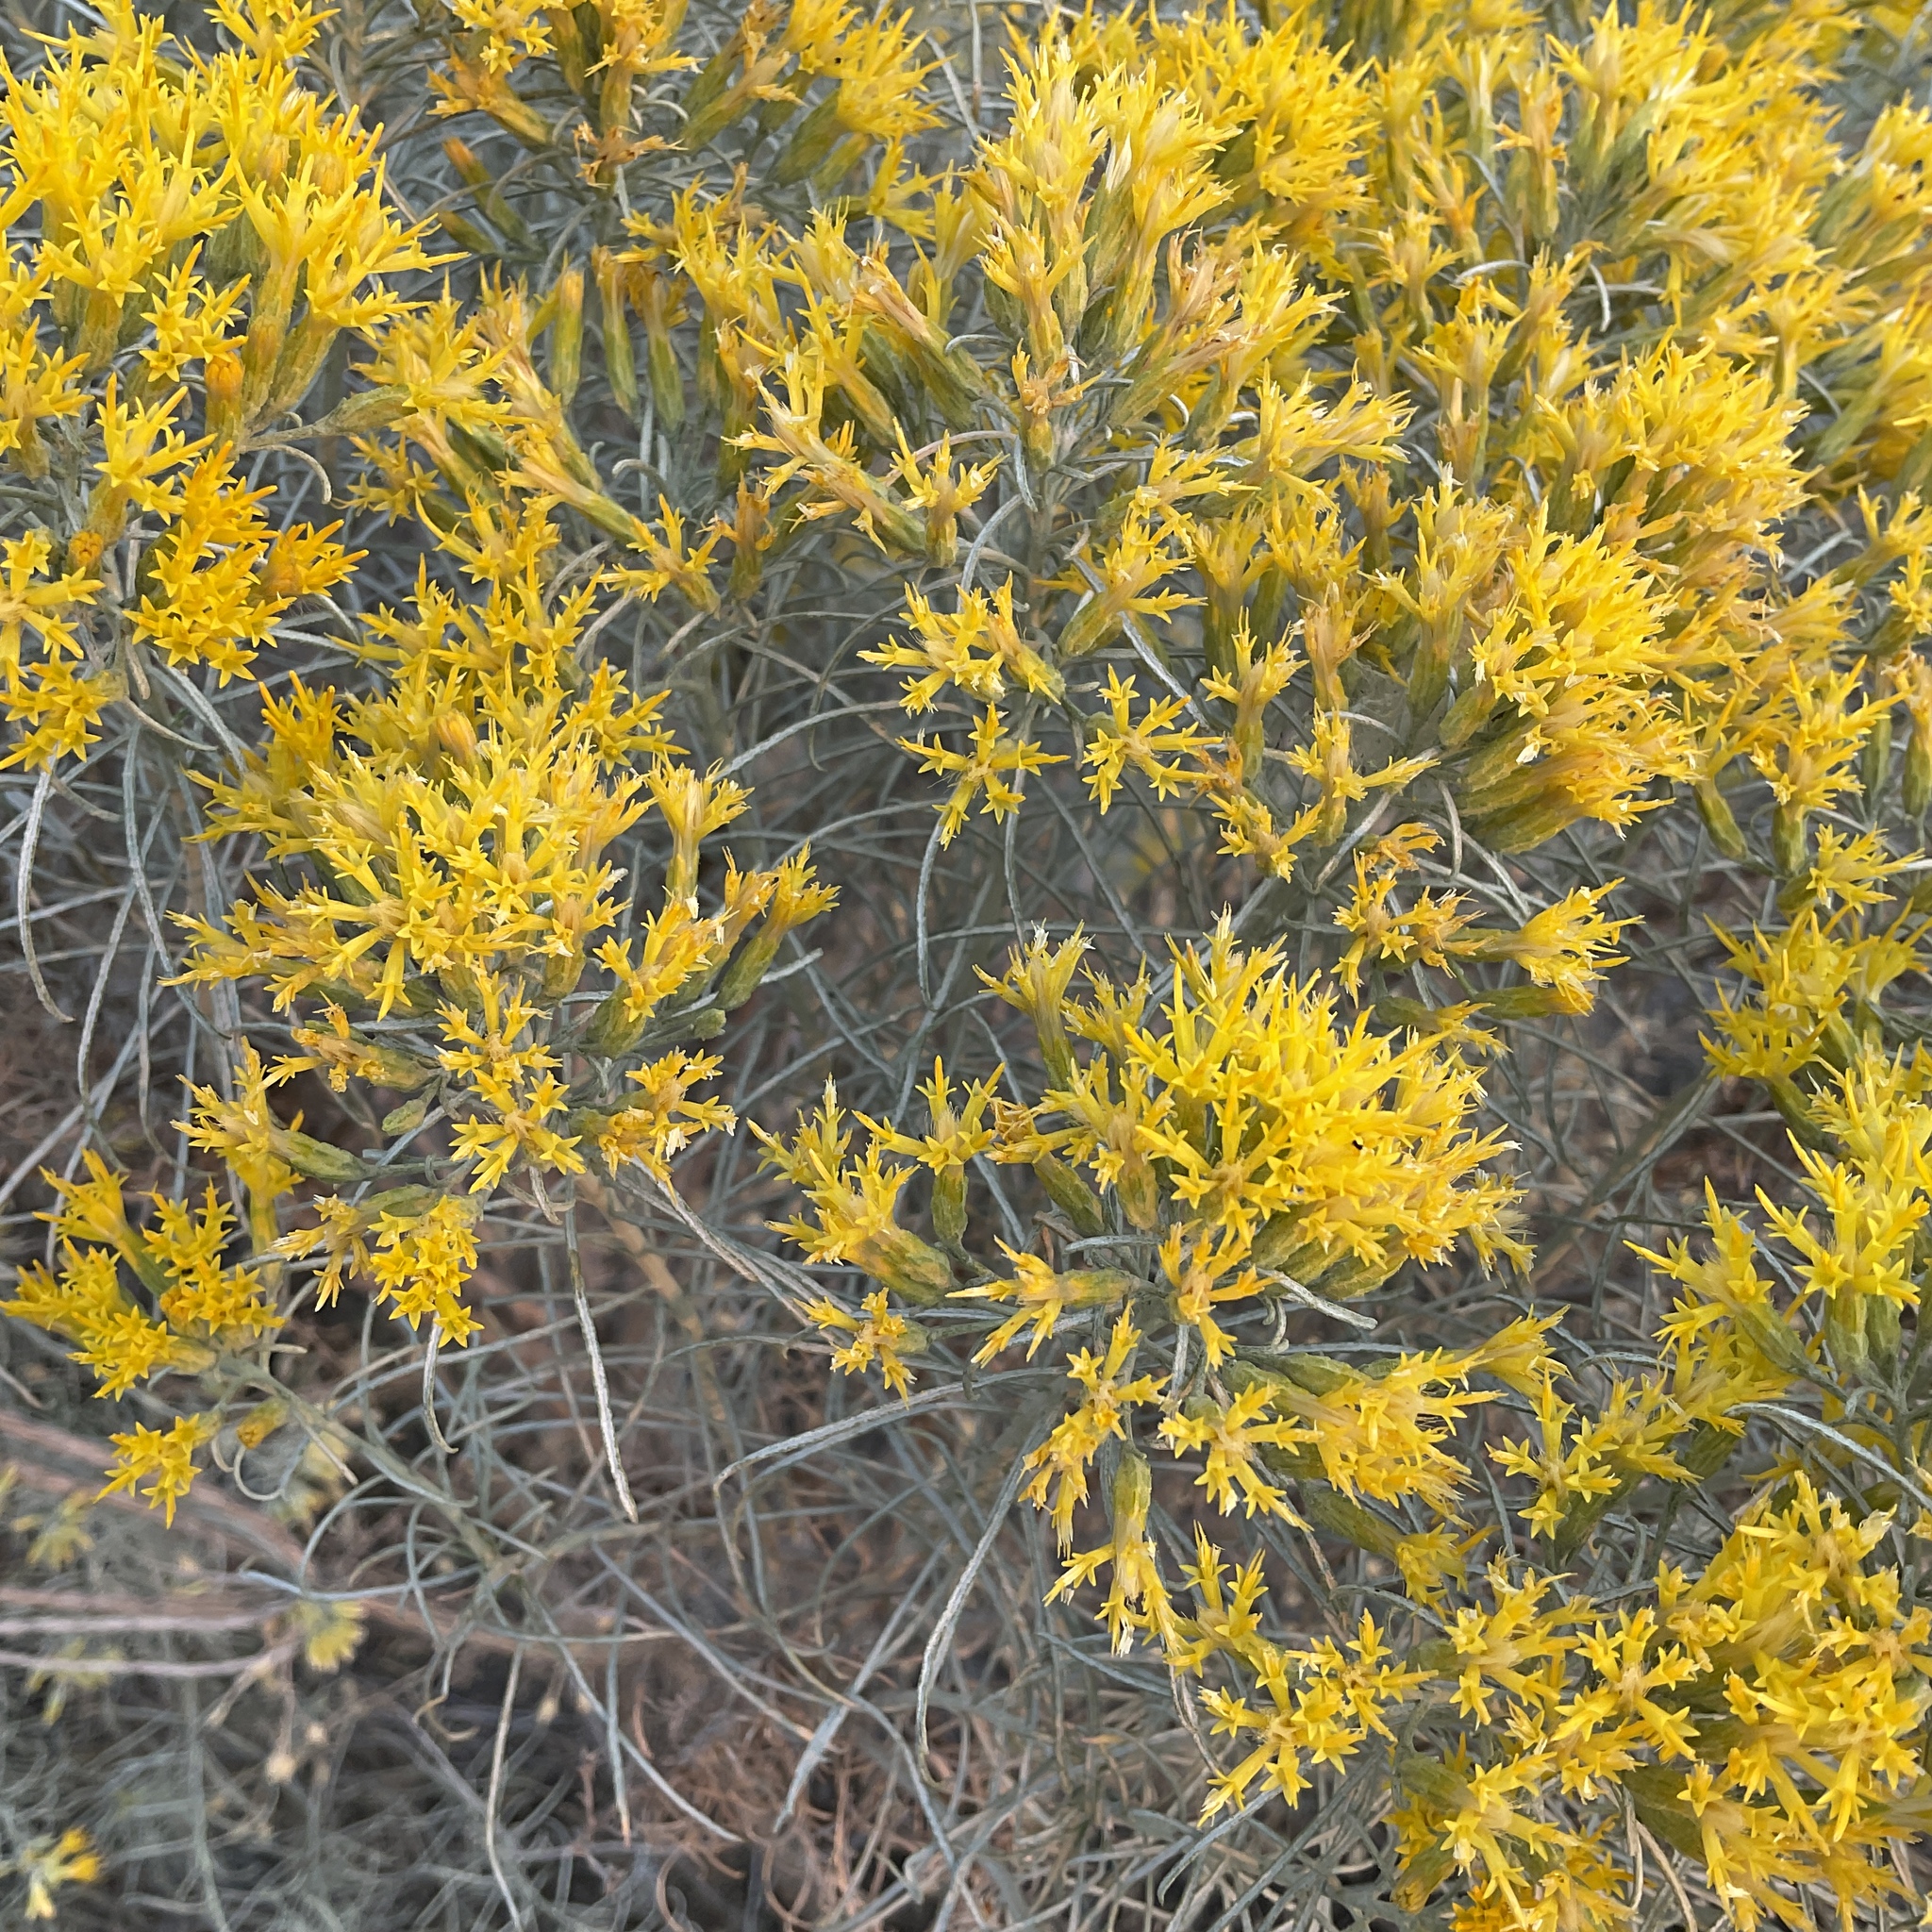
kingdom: Plantae
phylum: Tracheophyta
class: Magnoliopsida
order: Asterales
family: Asteraceae
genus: Ericameria
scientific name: Ericameria nauseosa
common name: Rubber rabbitbrush
